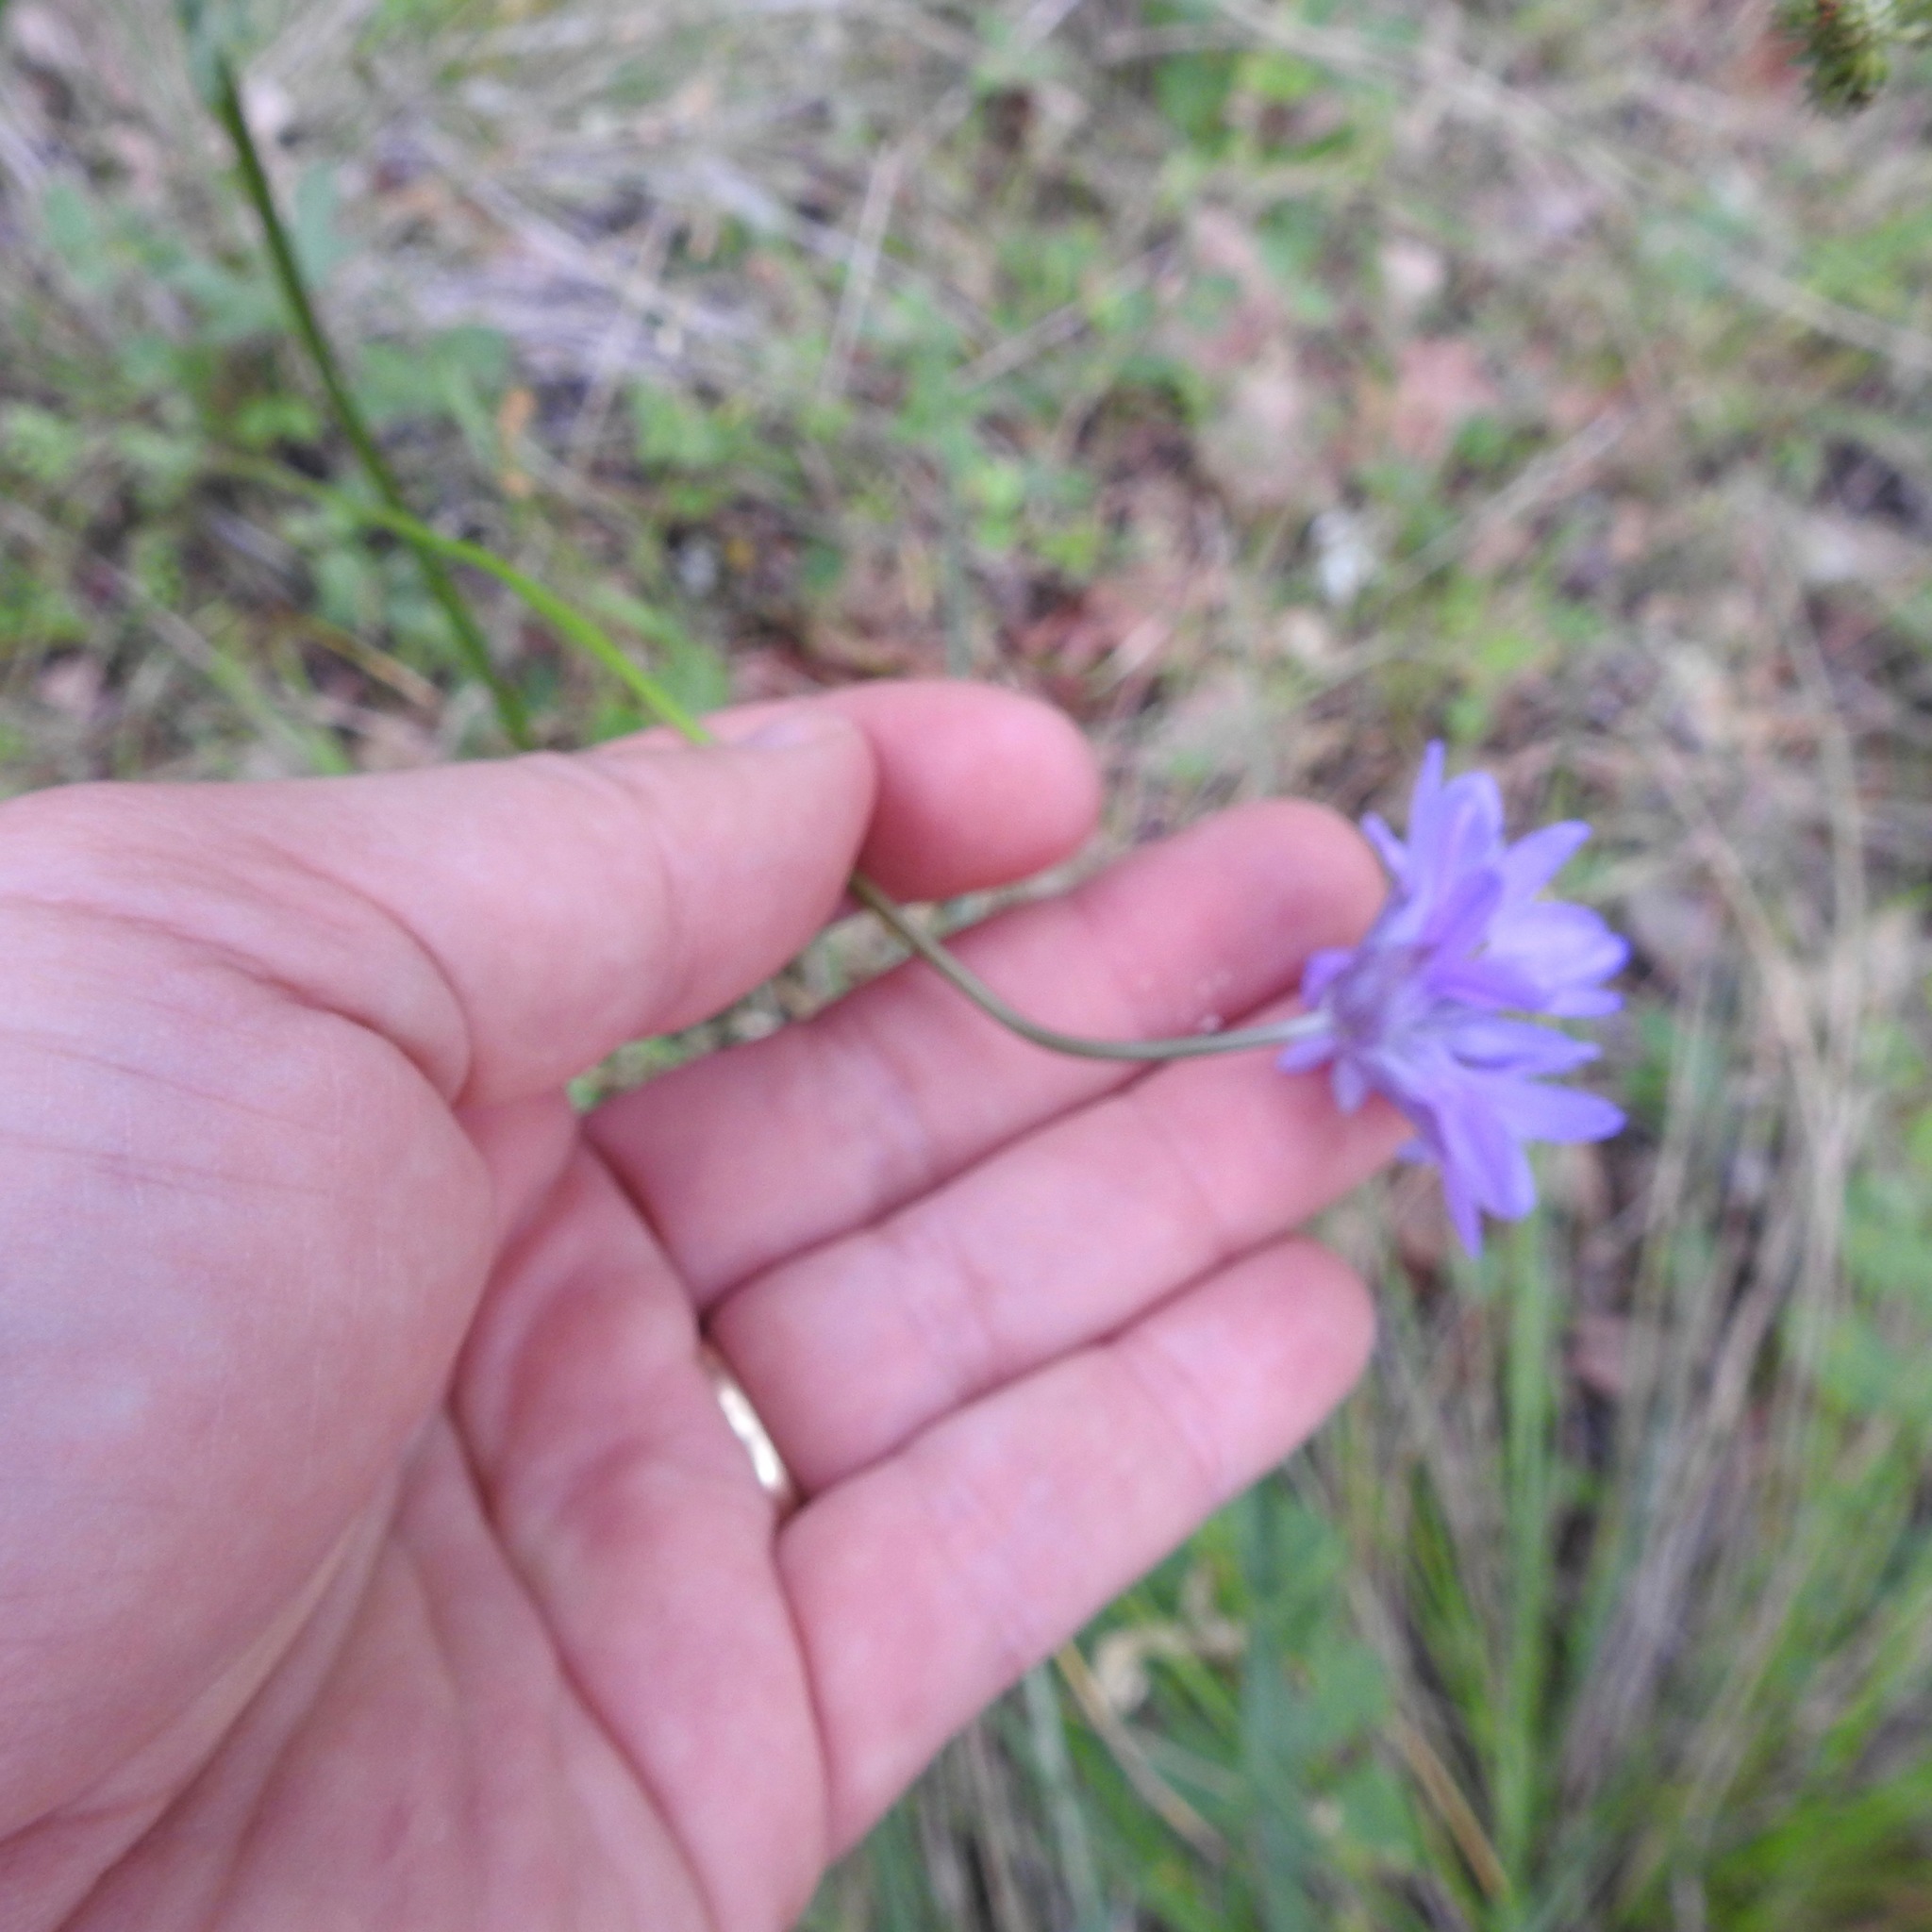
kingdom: Plantae
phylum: Tracheophyta
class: Liliopsida
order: Asparagales
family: Asparagaceae
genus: Dichelostemma
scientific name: Dichelostemma congestum
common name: Fork-tooth ookow
